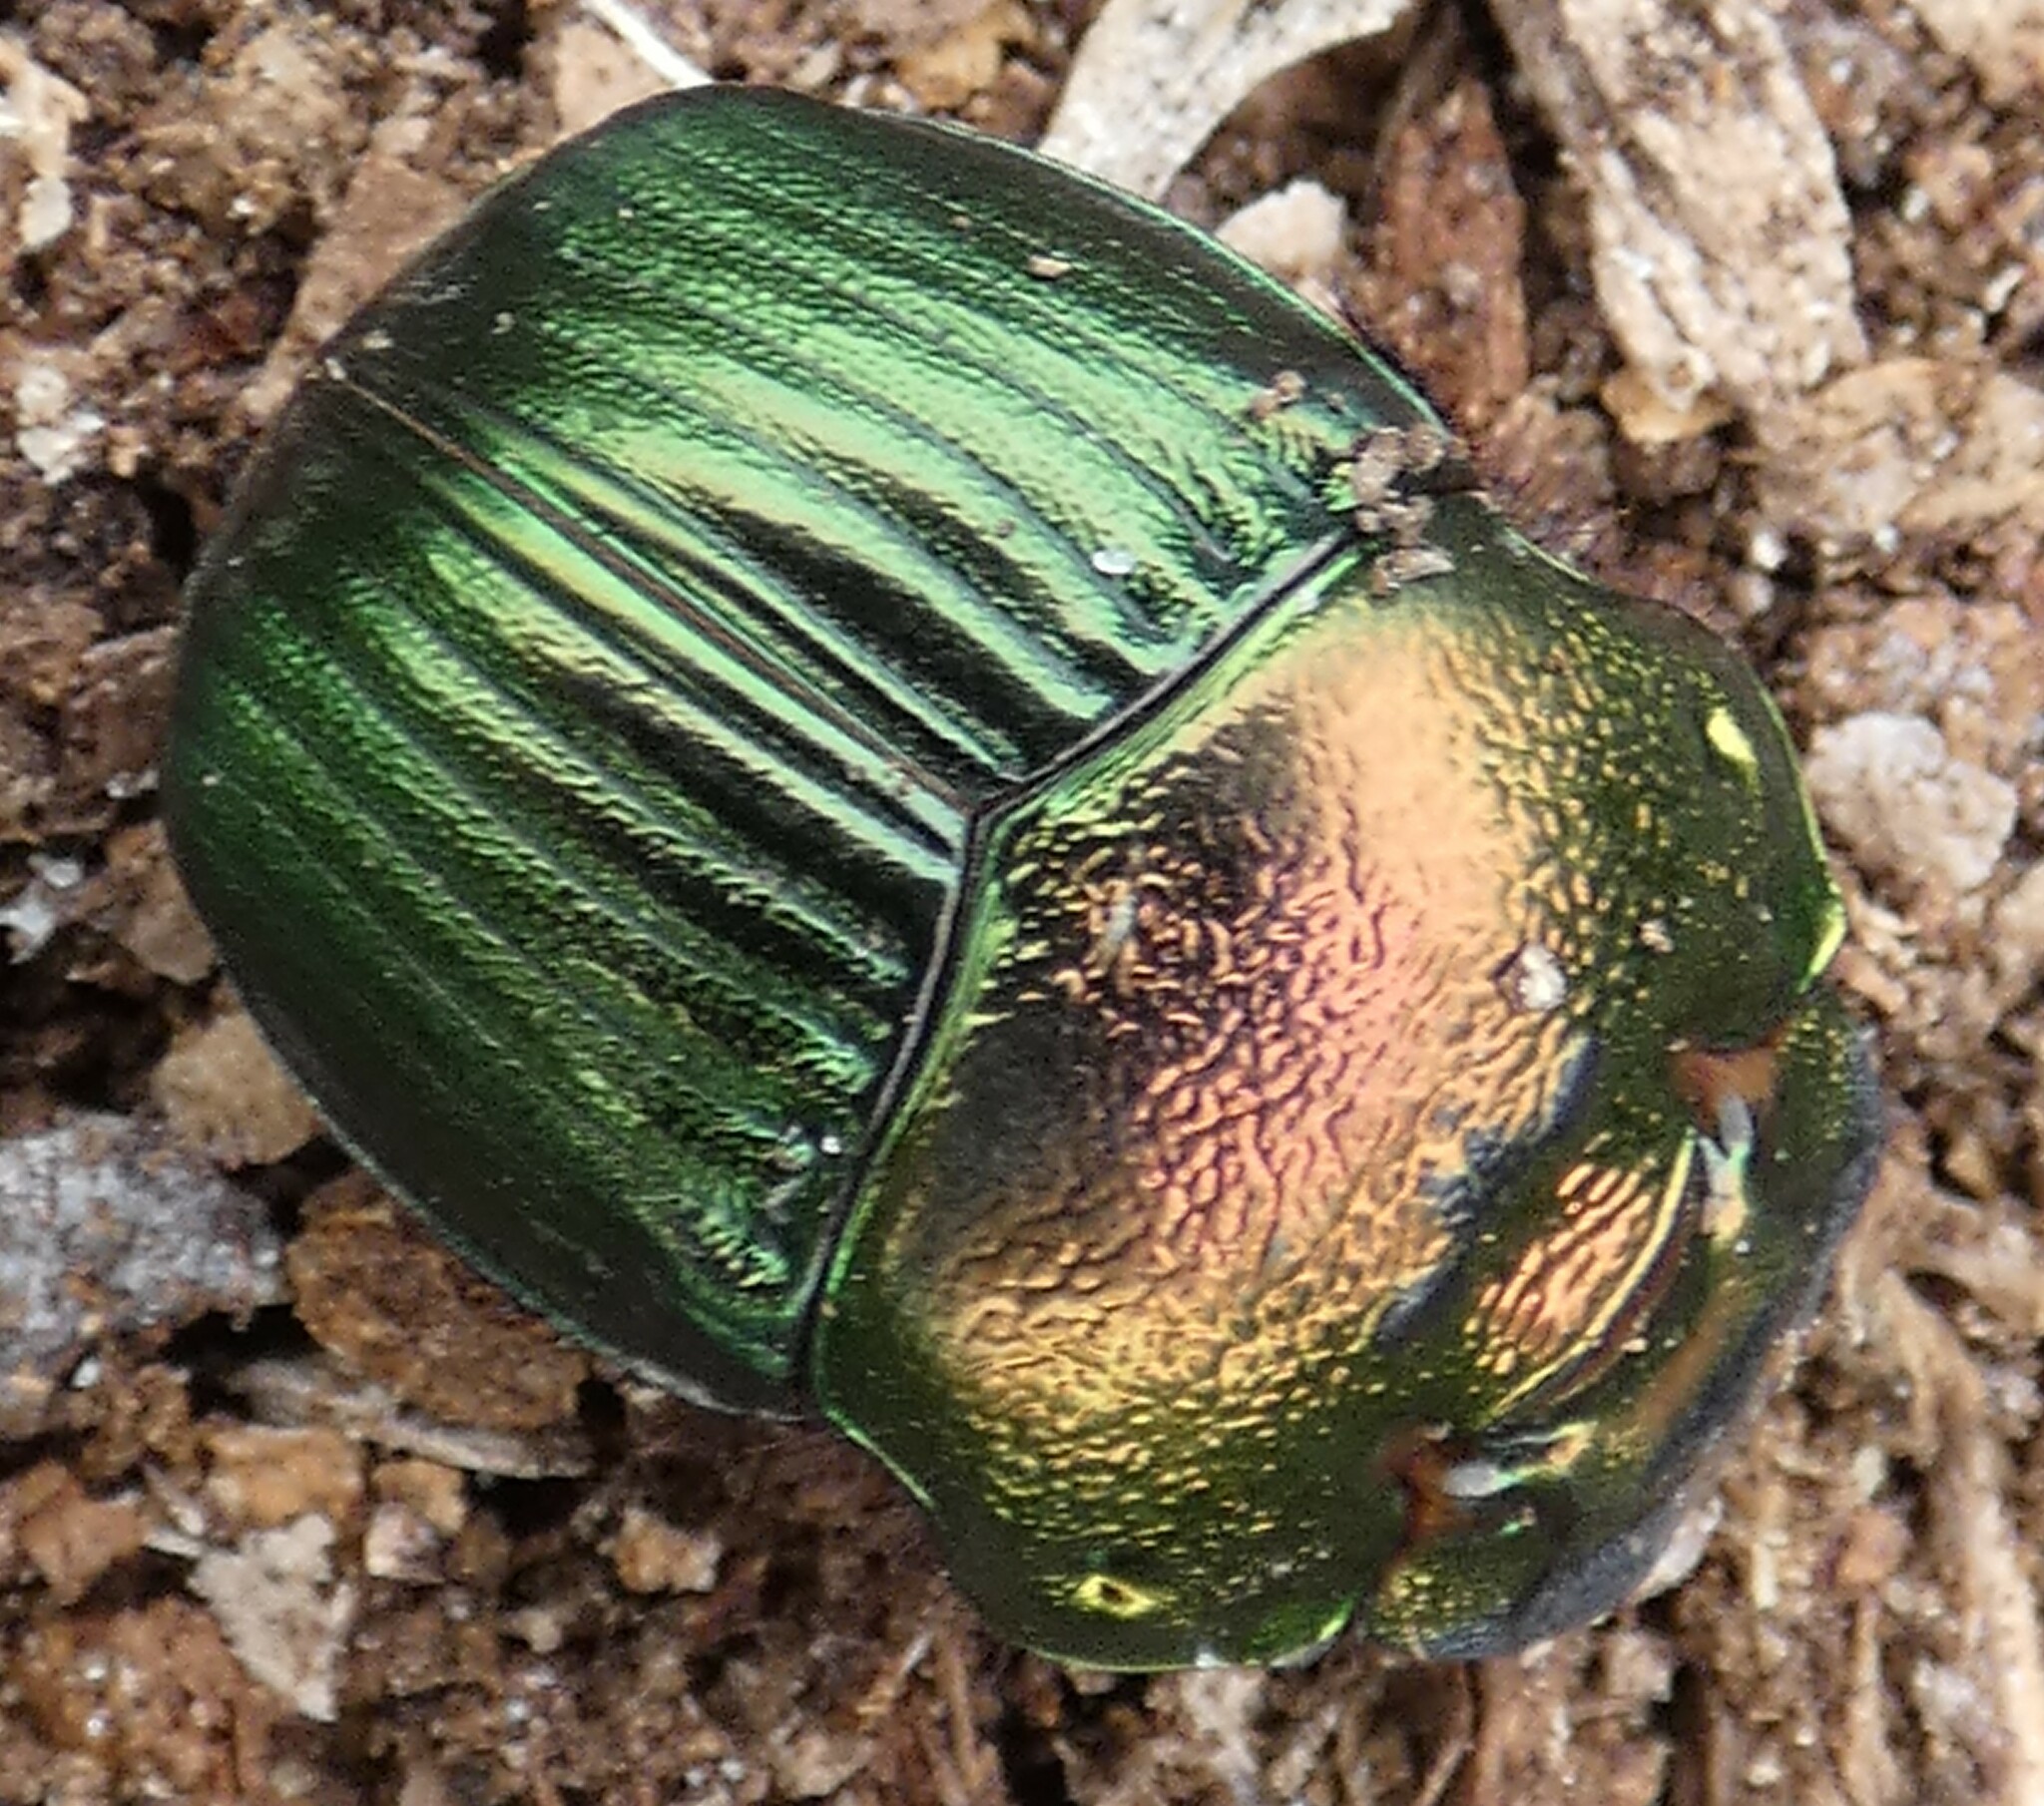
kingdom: Animalia
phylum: Arthropoda
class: Insecta
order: Coleoptera
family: Scarabaeidae
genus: Phanaeus
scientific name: Phanaeus igneus
